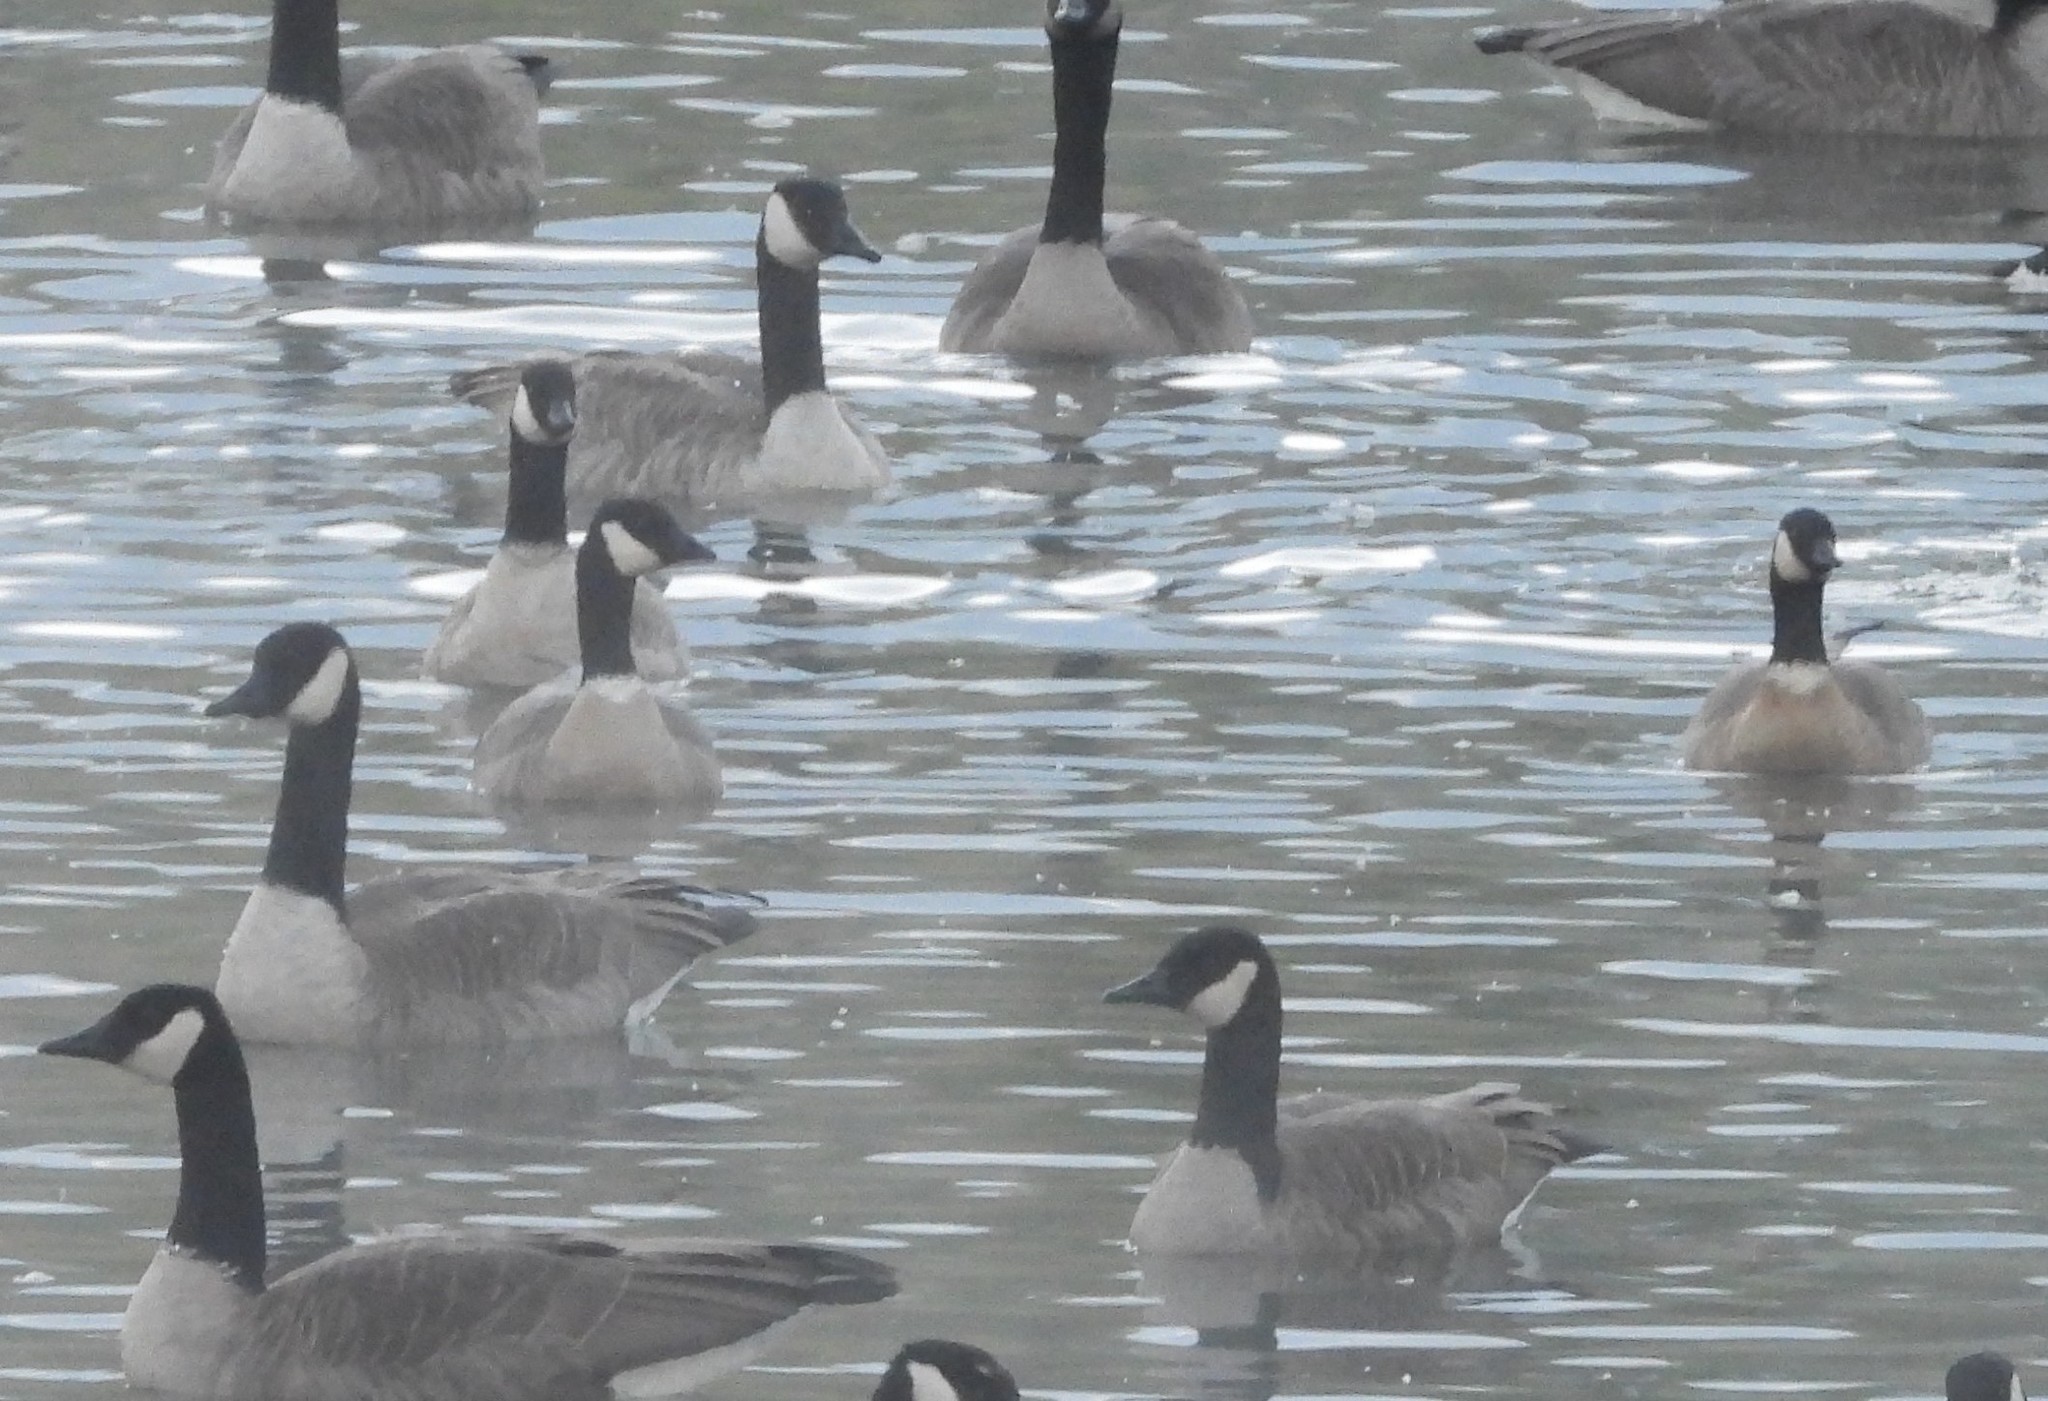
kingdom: Animalia
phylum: Chordata
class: Aves
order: Anseriformes
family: Anatidae
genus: Branta
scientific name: Branta hutchinsii
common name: Cackling goose
